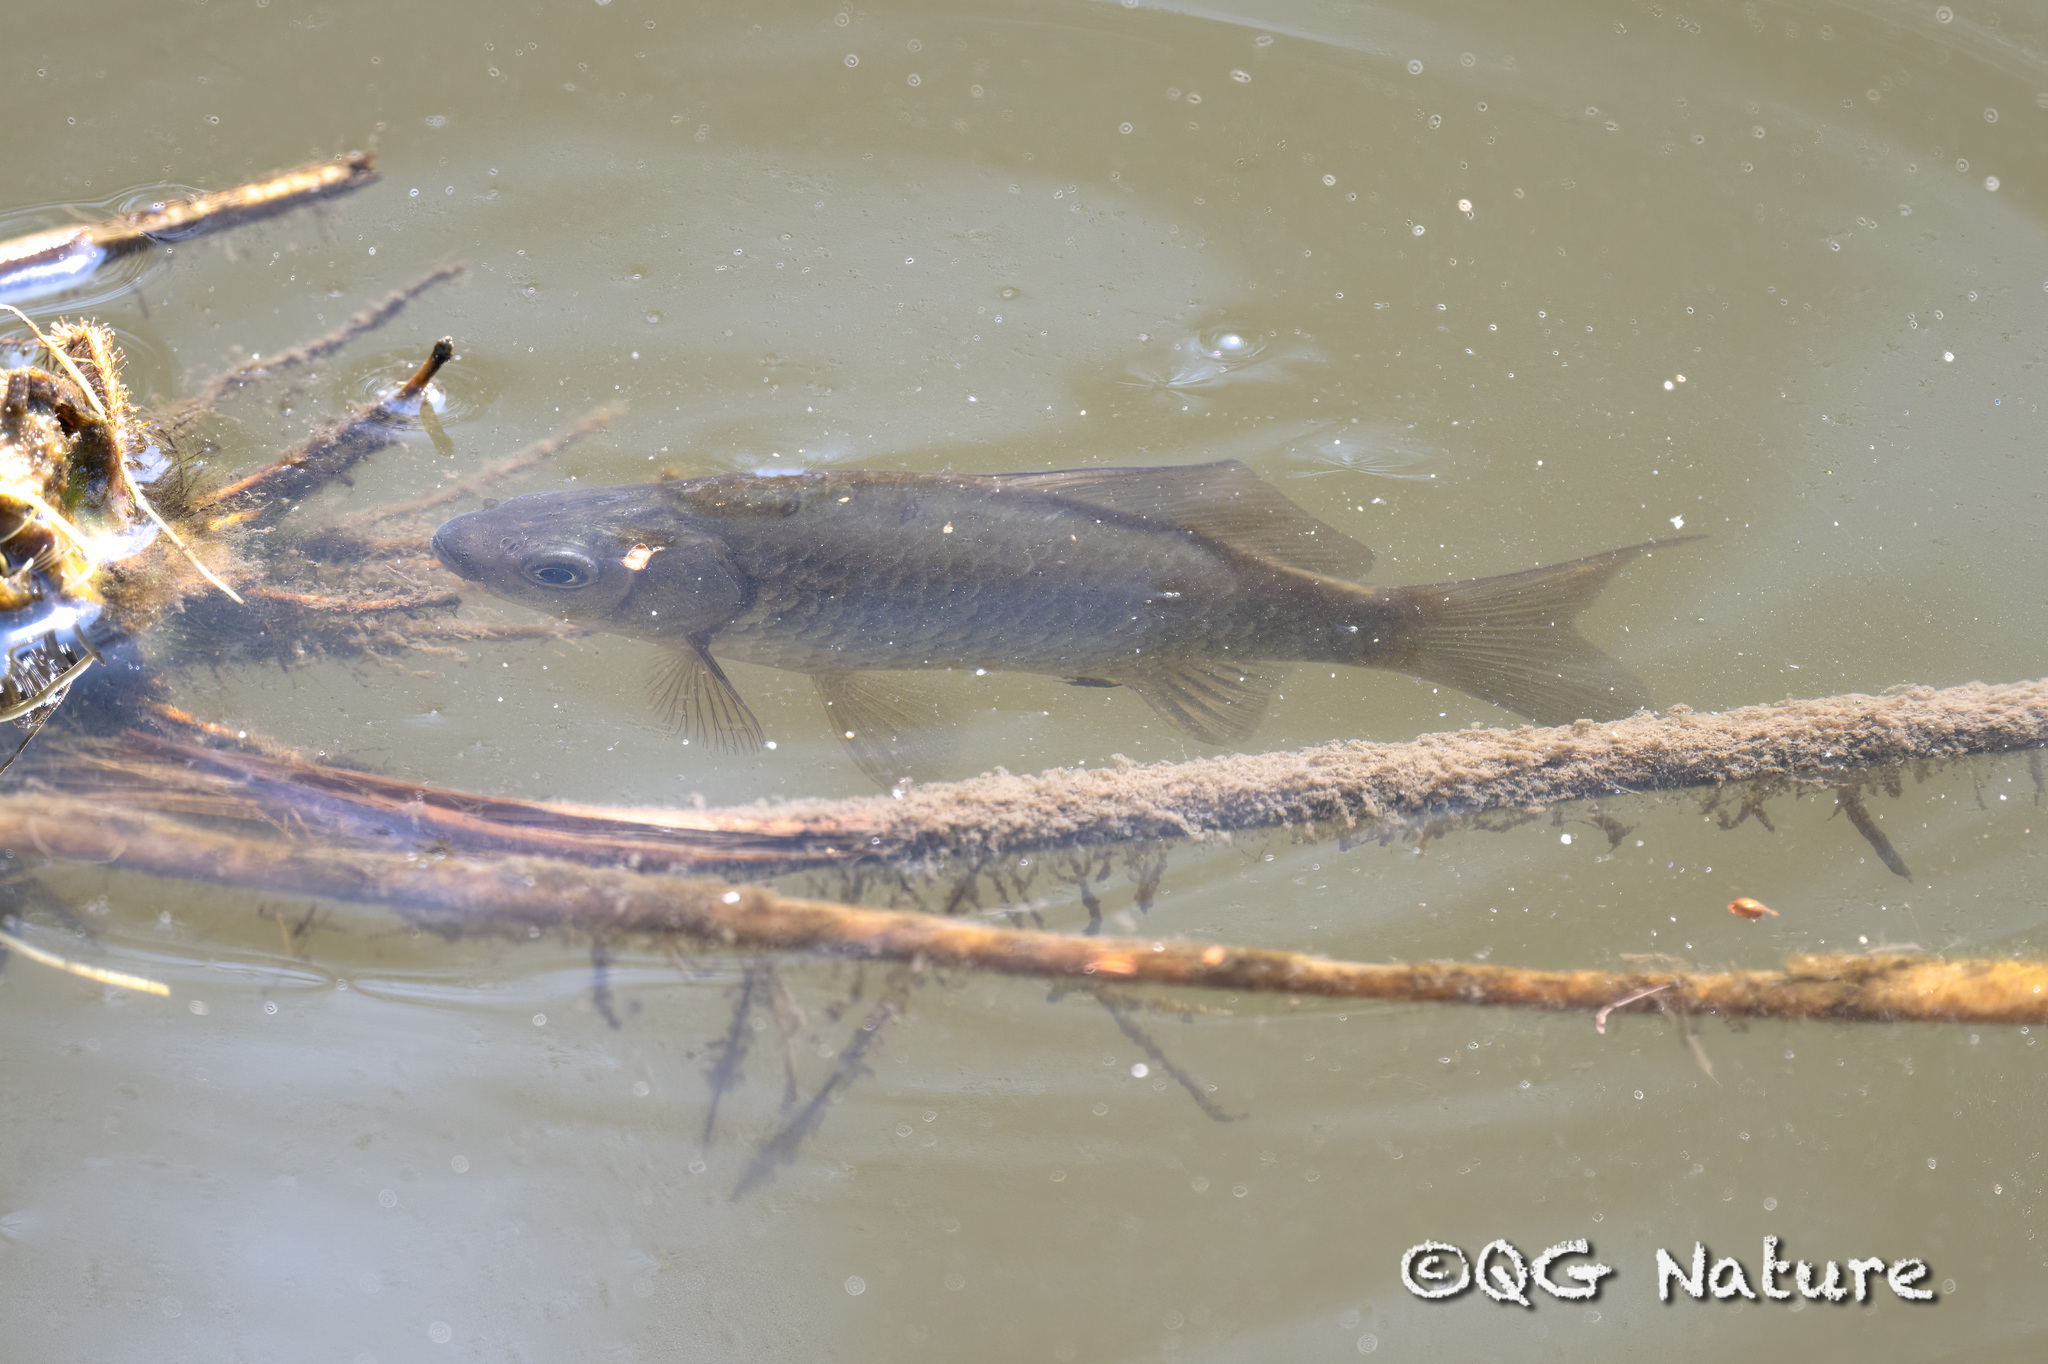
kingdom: Animalia
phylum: Chordata
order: Cypriniformes
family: Cyprinidae
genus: Carassius
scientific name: Carassius auratus
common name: Goldfish
